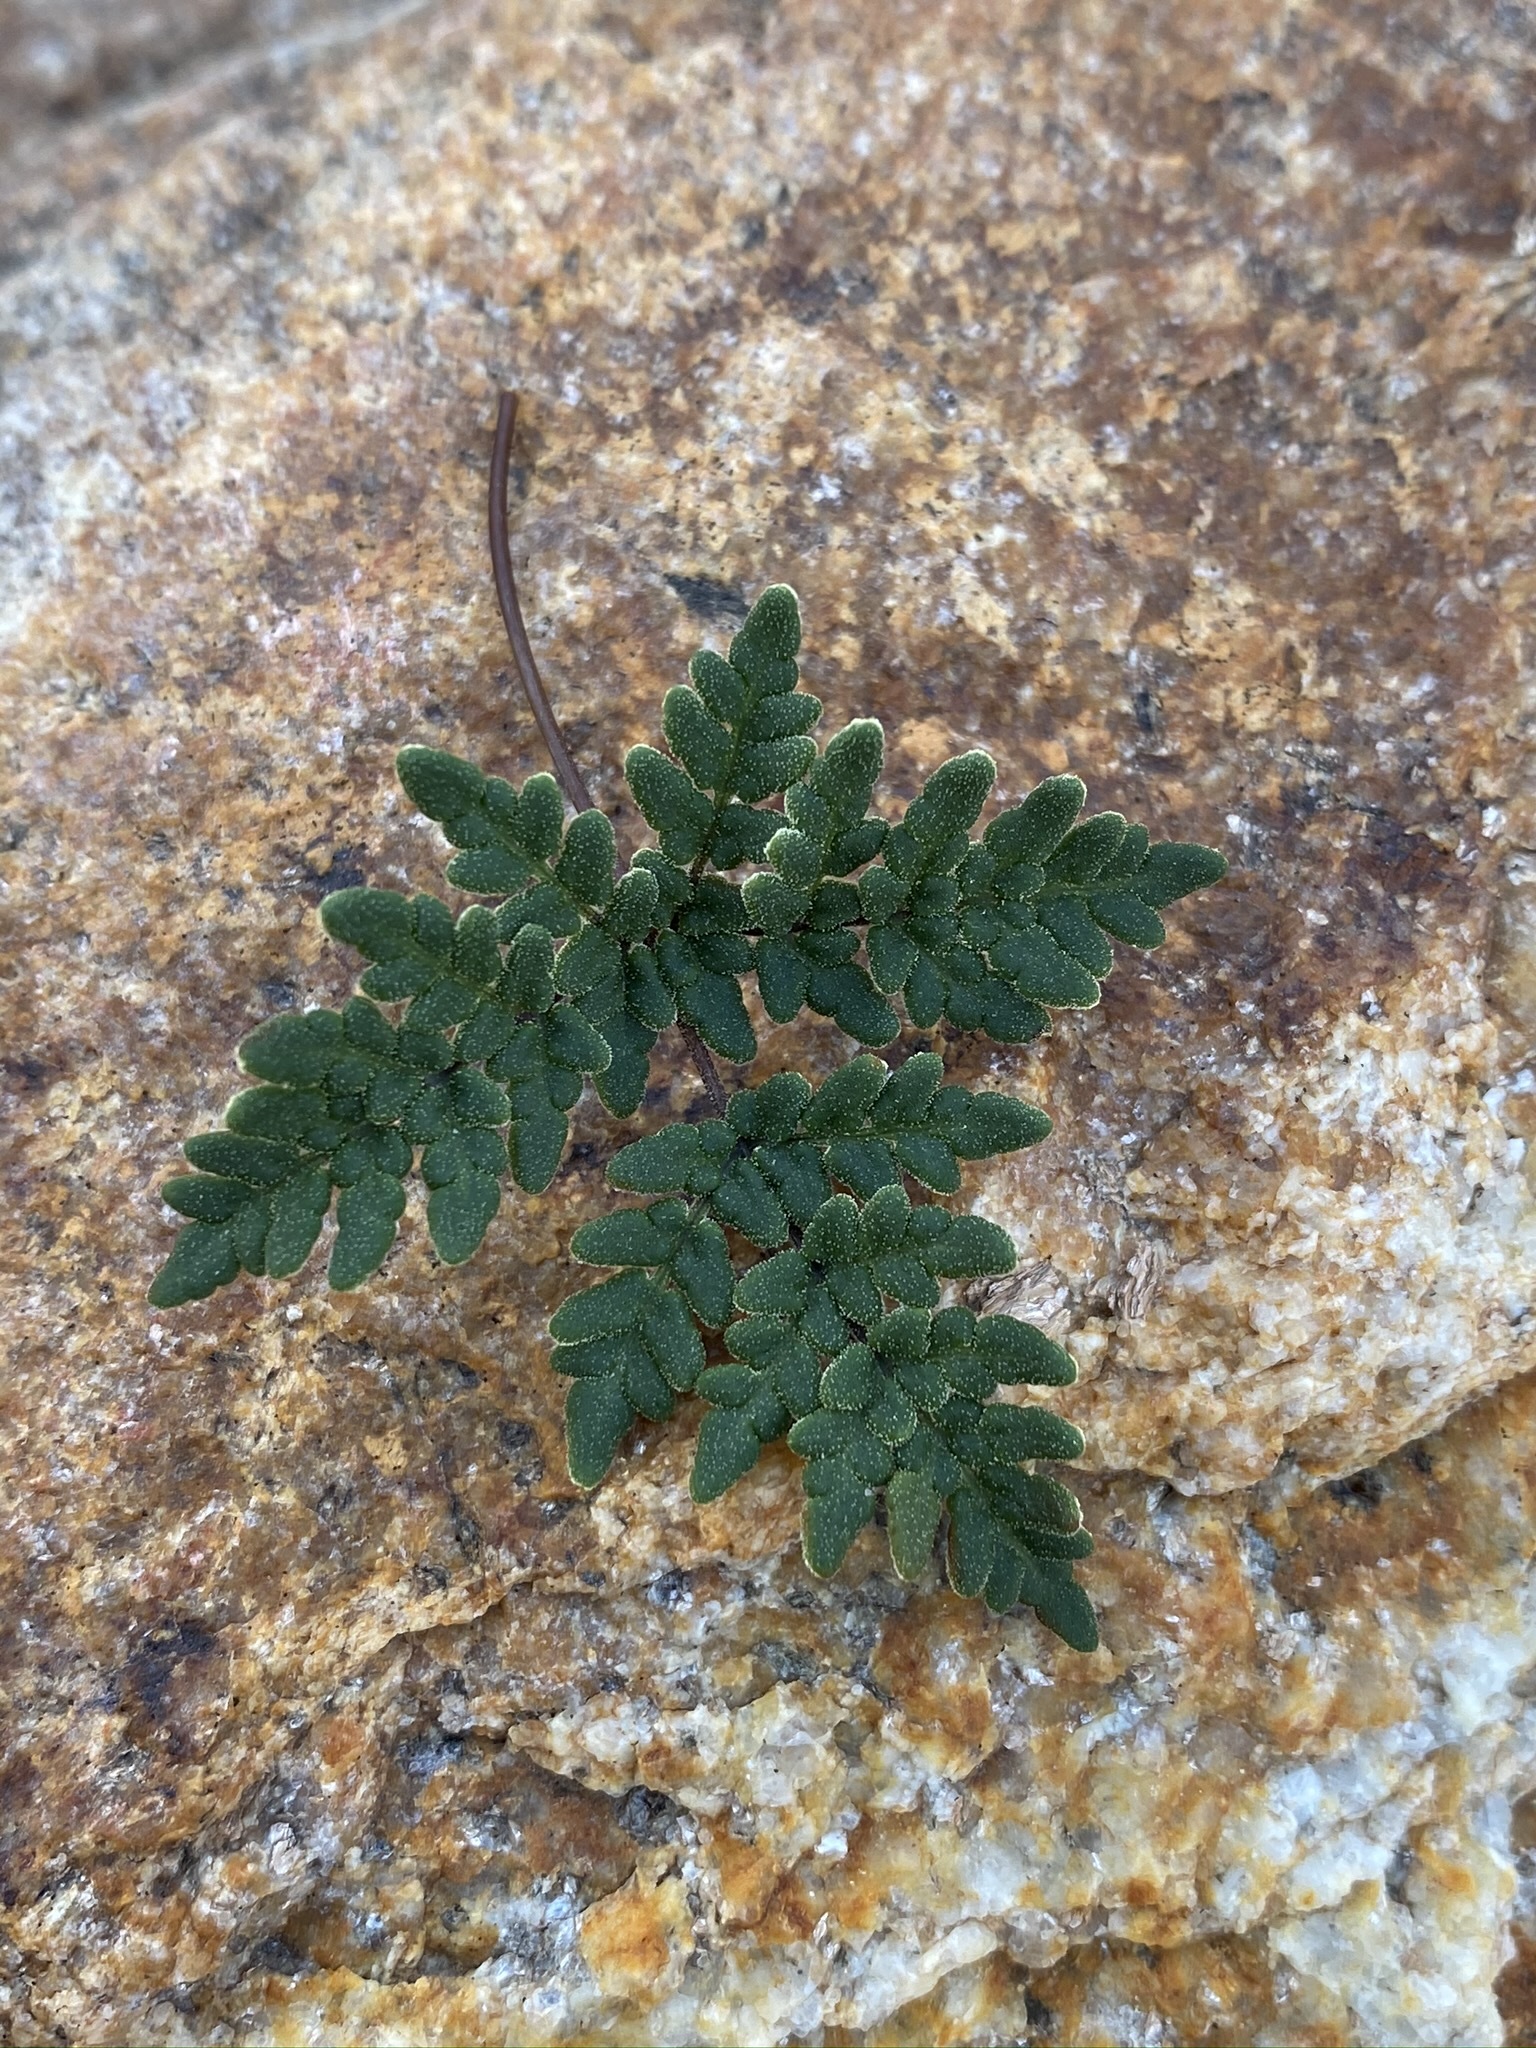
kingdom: Plantae
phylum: Tracheophyta
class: Polypodiopsida
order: Polypodiales
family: Pteridaceae
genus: Notholaena
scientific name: Notholaena californica
